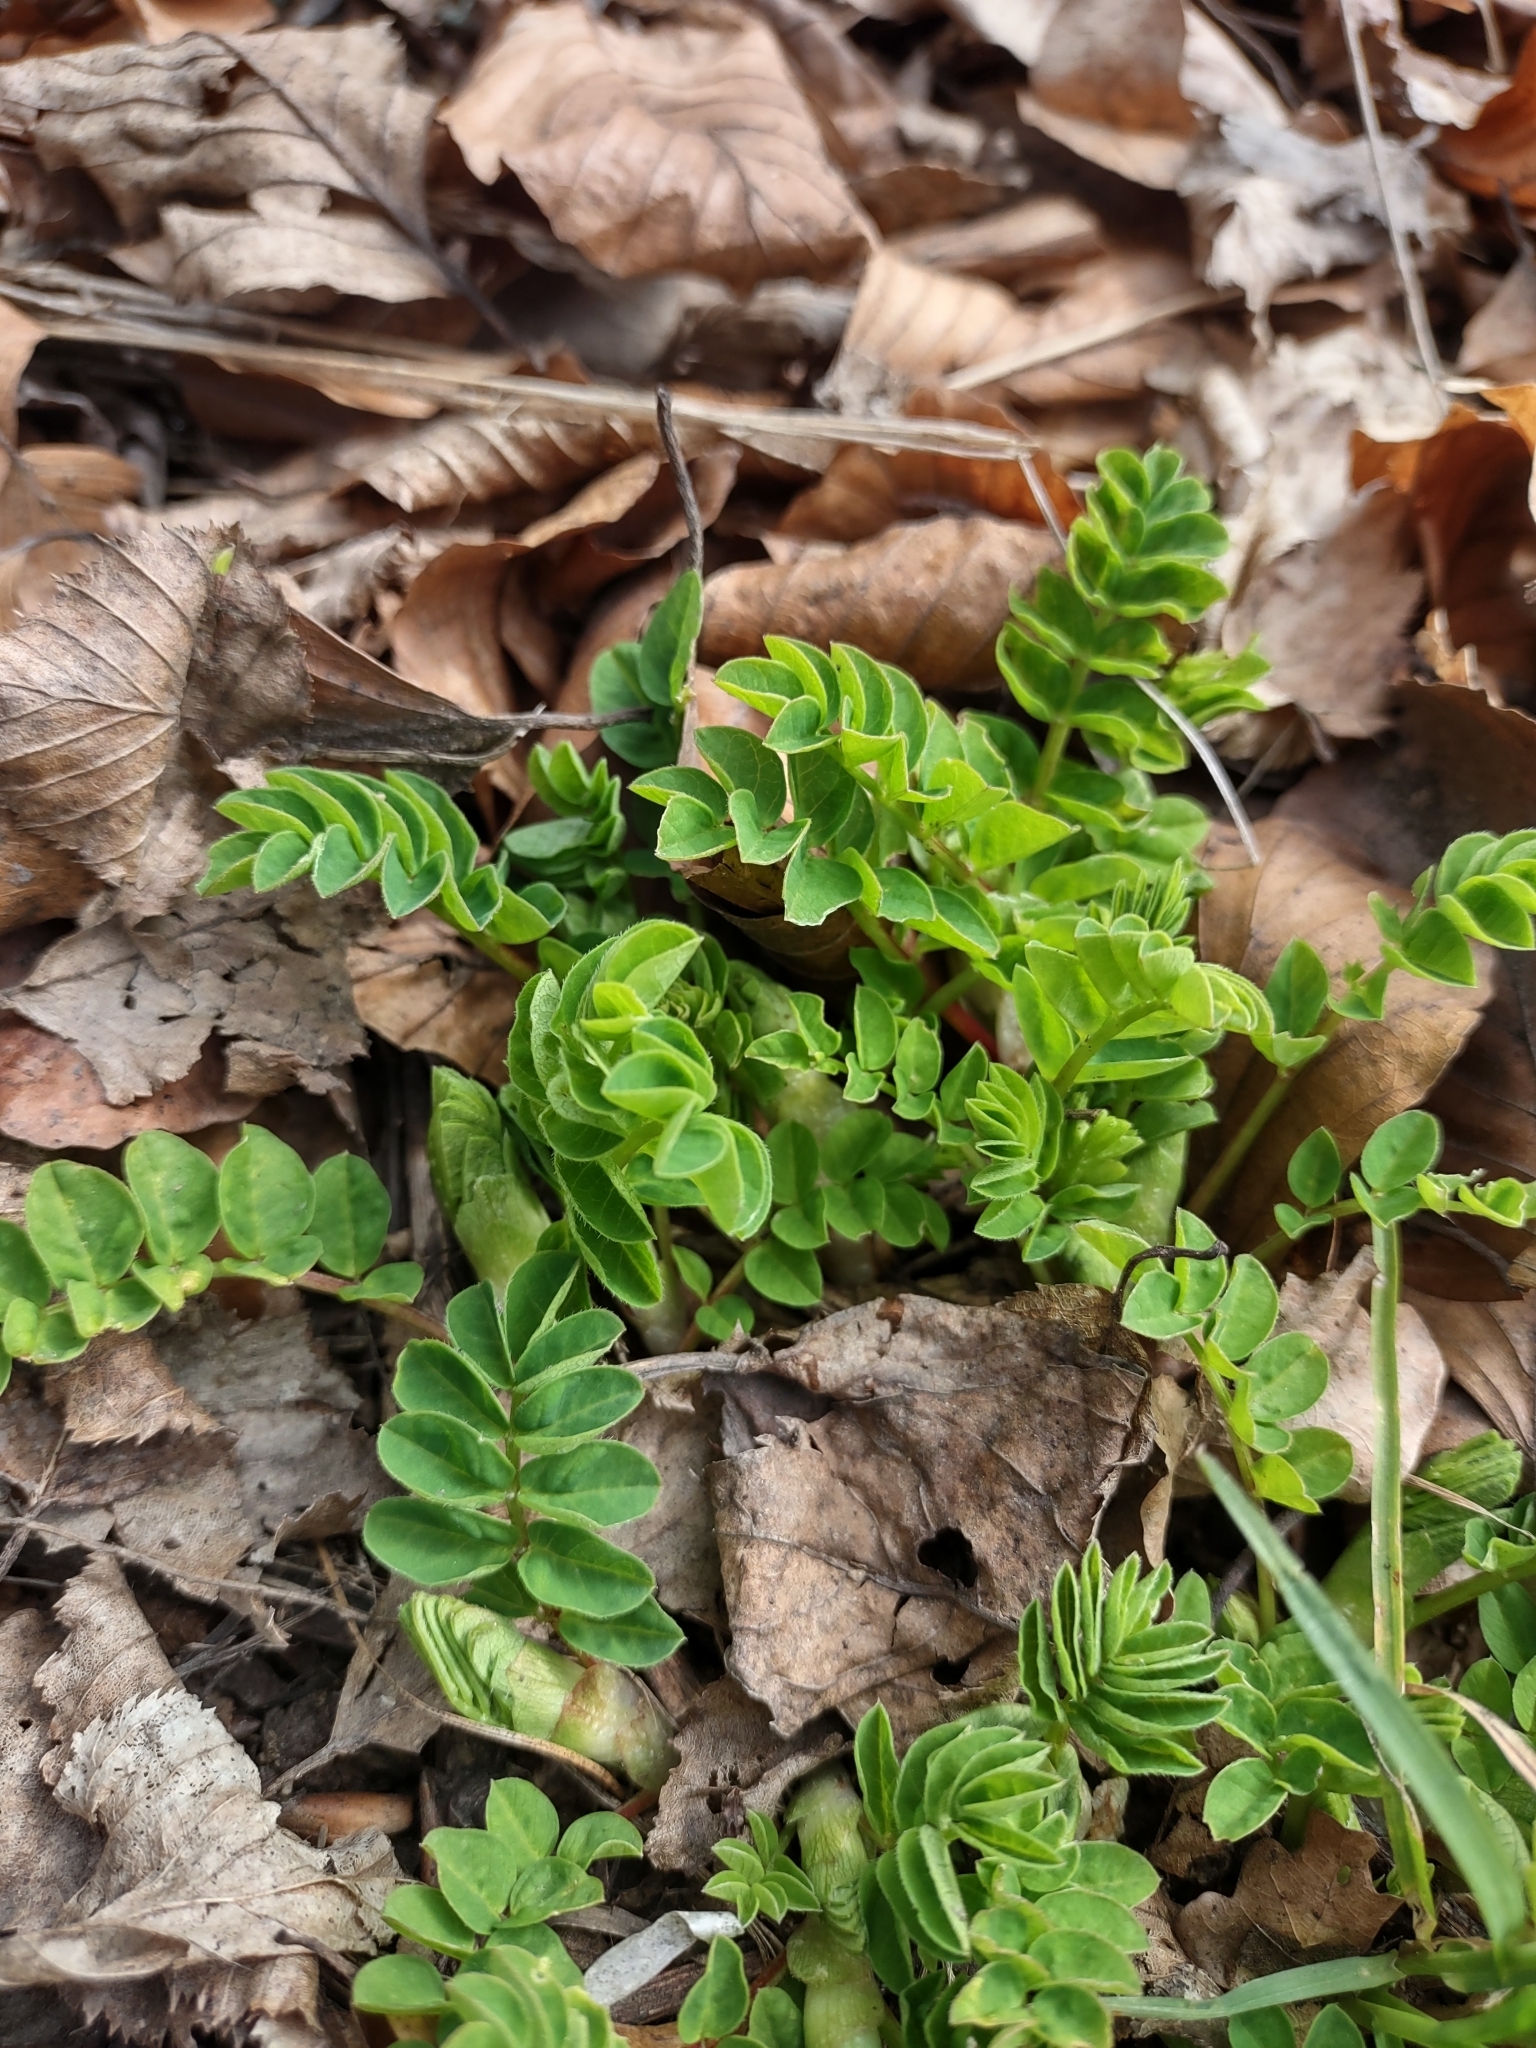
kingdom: Plantae
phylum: Tracheophyta
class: Magnoliopsida
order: Fabales
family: Fabaceae
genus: Astragalus
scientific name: Astragalus glycyphyllos
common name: Wild liquorice
